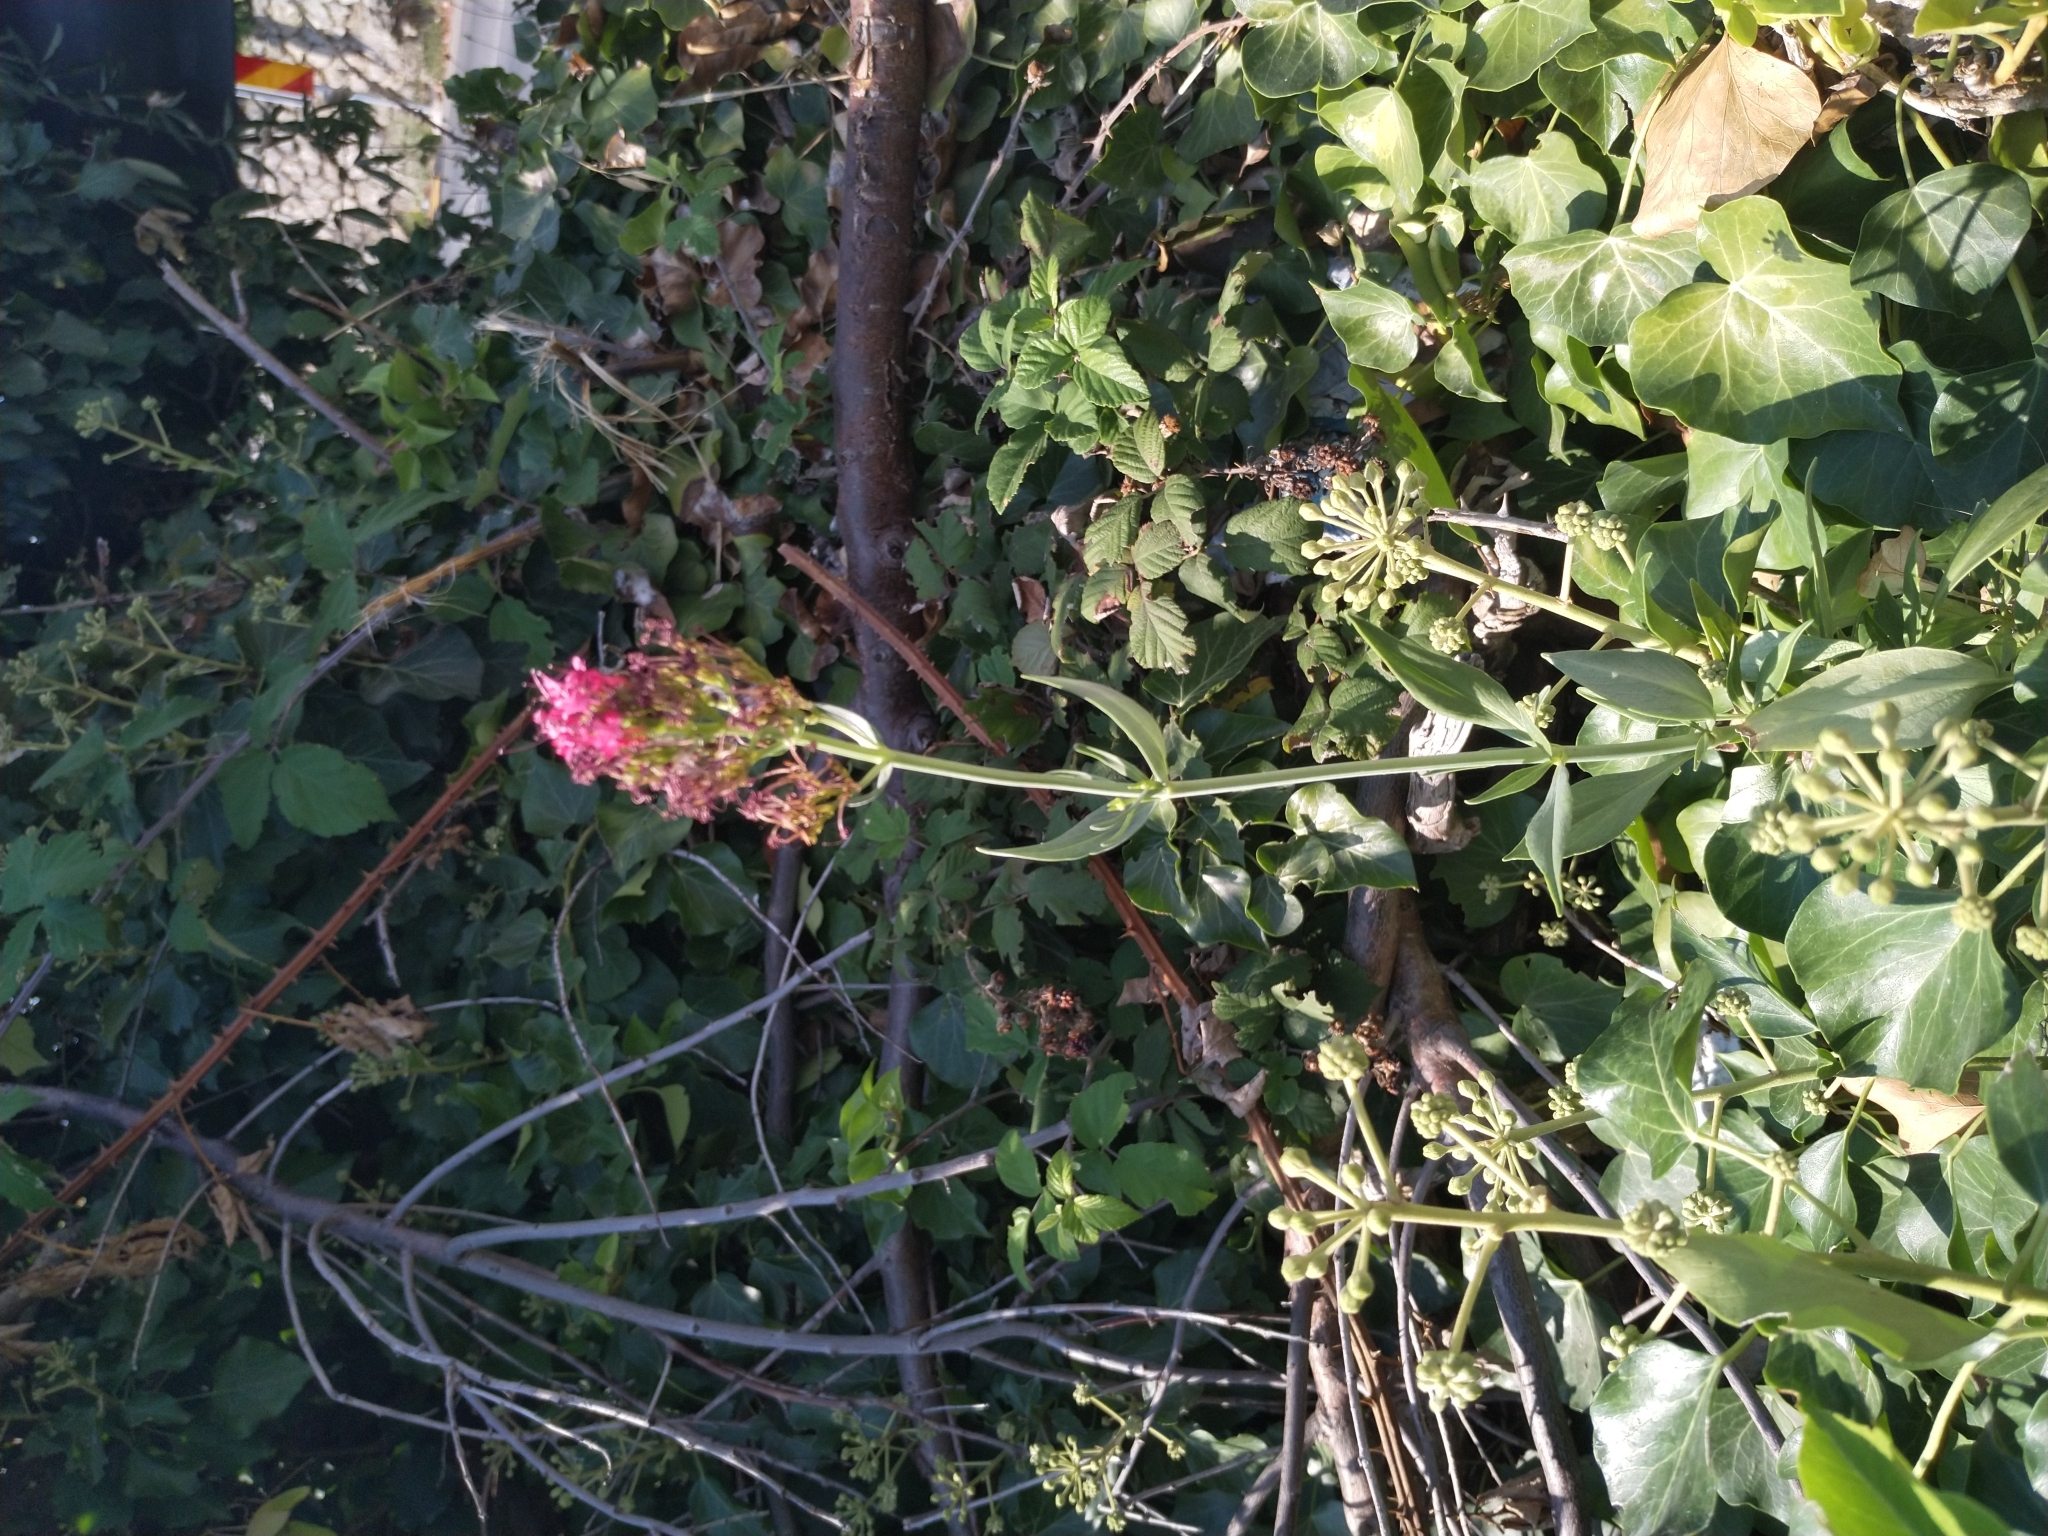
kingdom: Plantae
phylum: Tracheophyta
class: Magnoliopsida
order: Dipsacales
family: Caprifoliaceae
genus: Centranthus
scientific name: Centranthus ruber
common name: Red valerian
